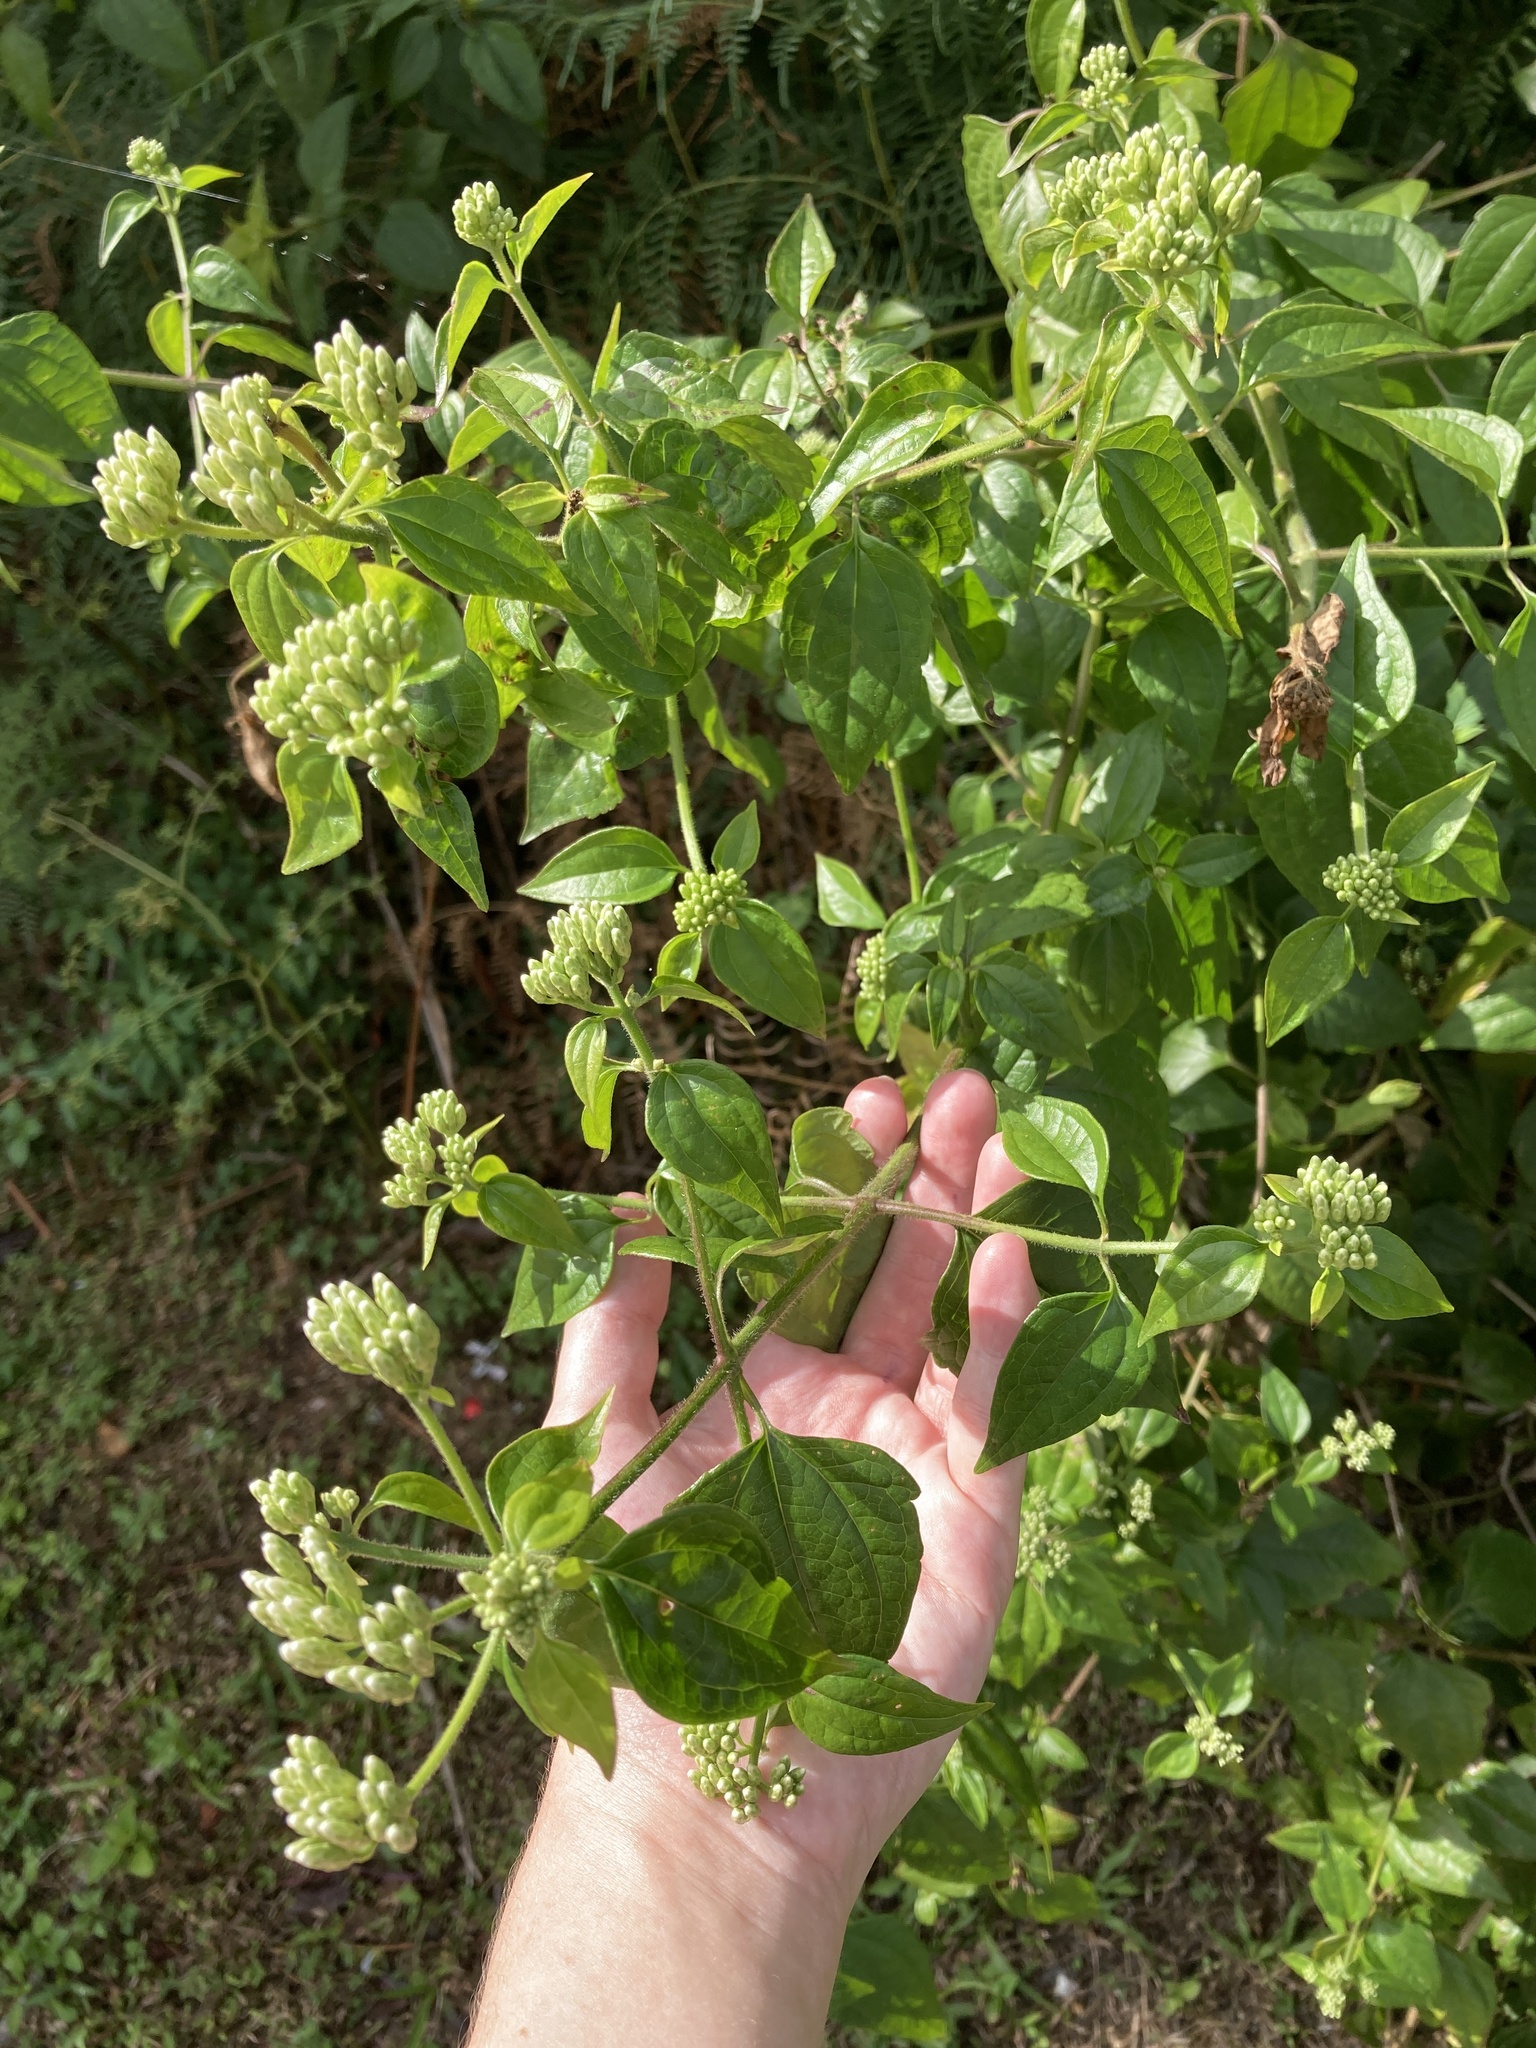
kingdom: Plantae
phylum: Tracheophyta
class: Magnoliopsida
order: Asterales
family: Asteraceae
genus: Chromolaena
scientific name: Chromolaena odorata
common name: Siamweed
